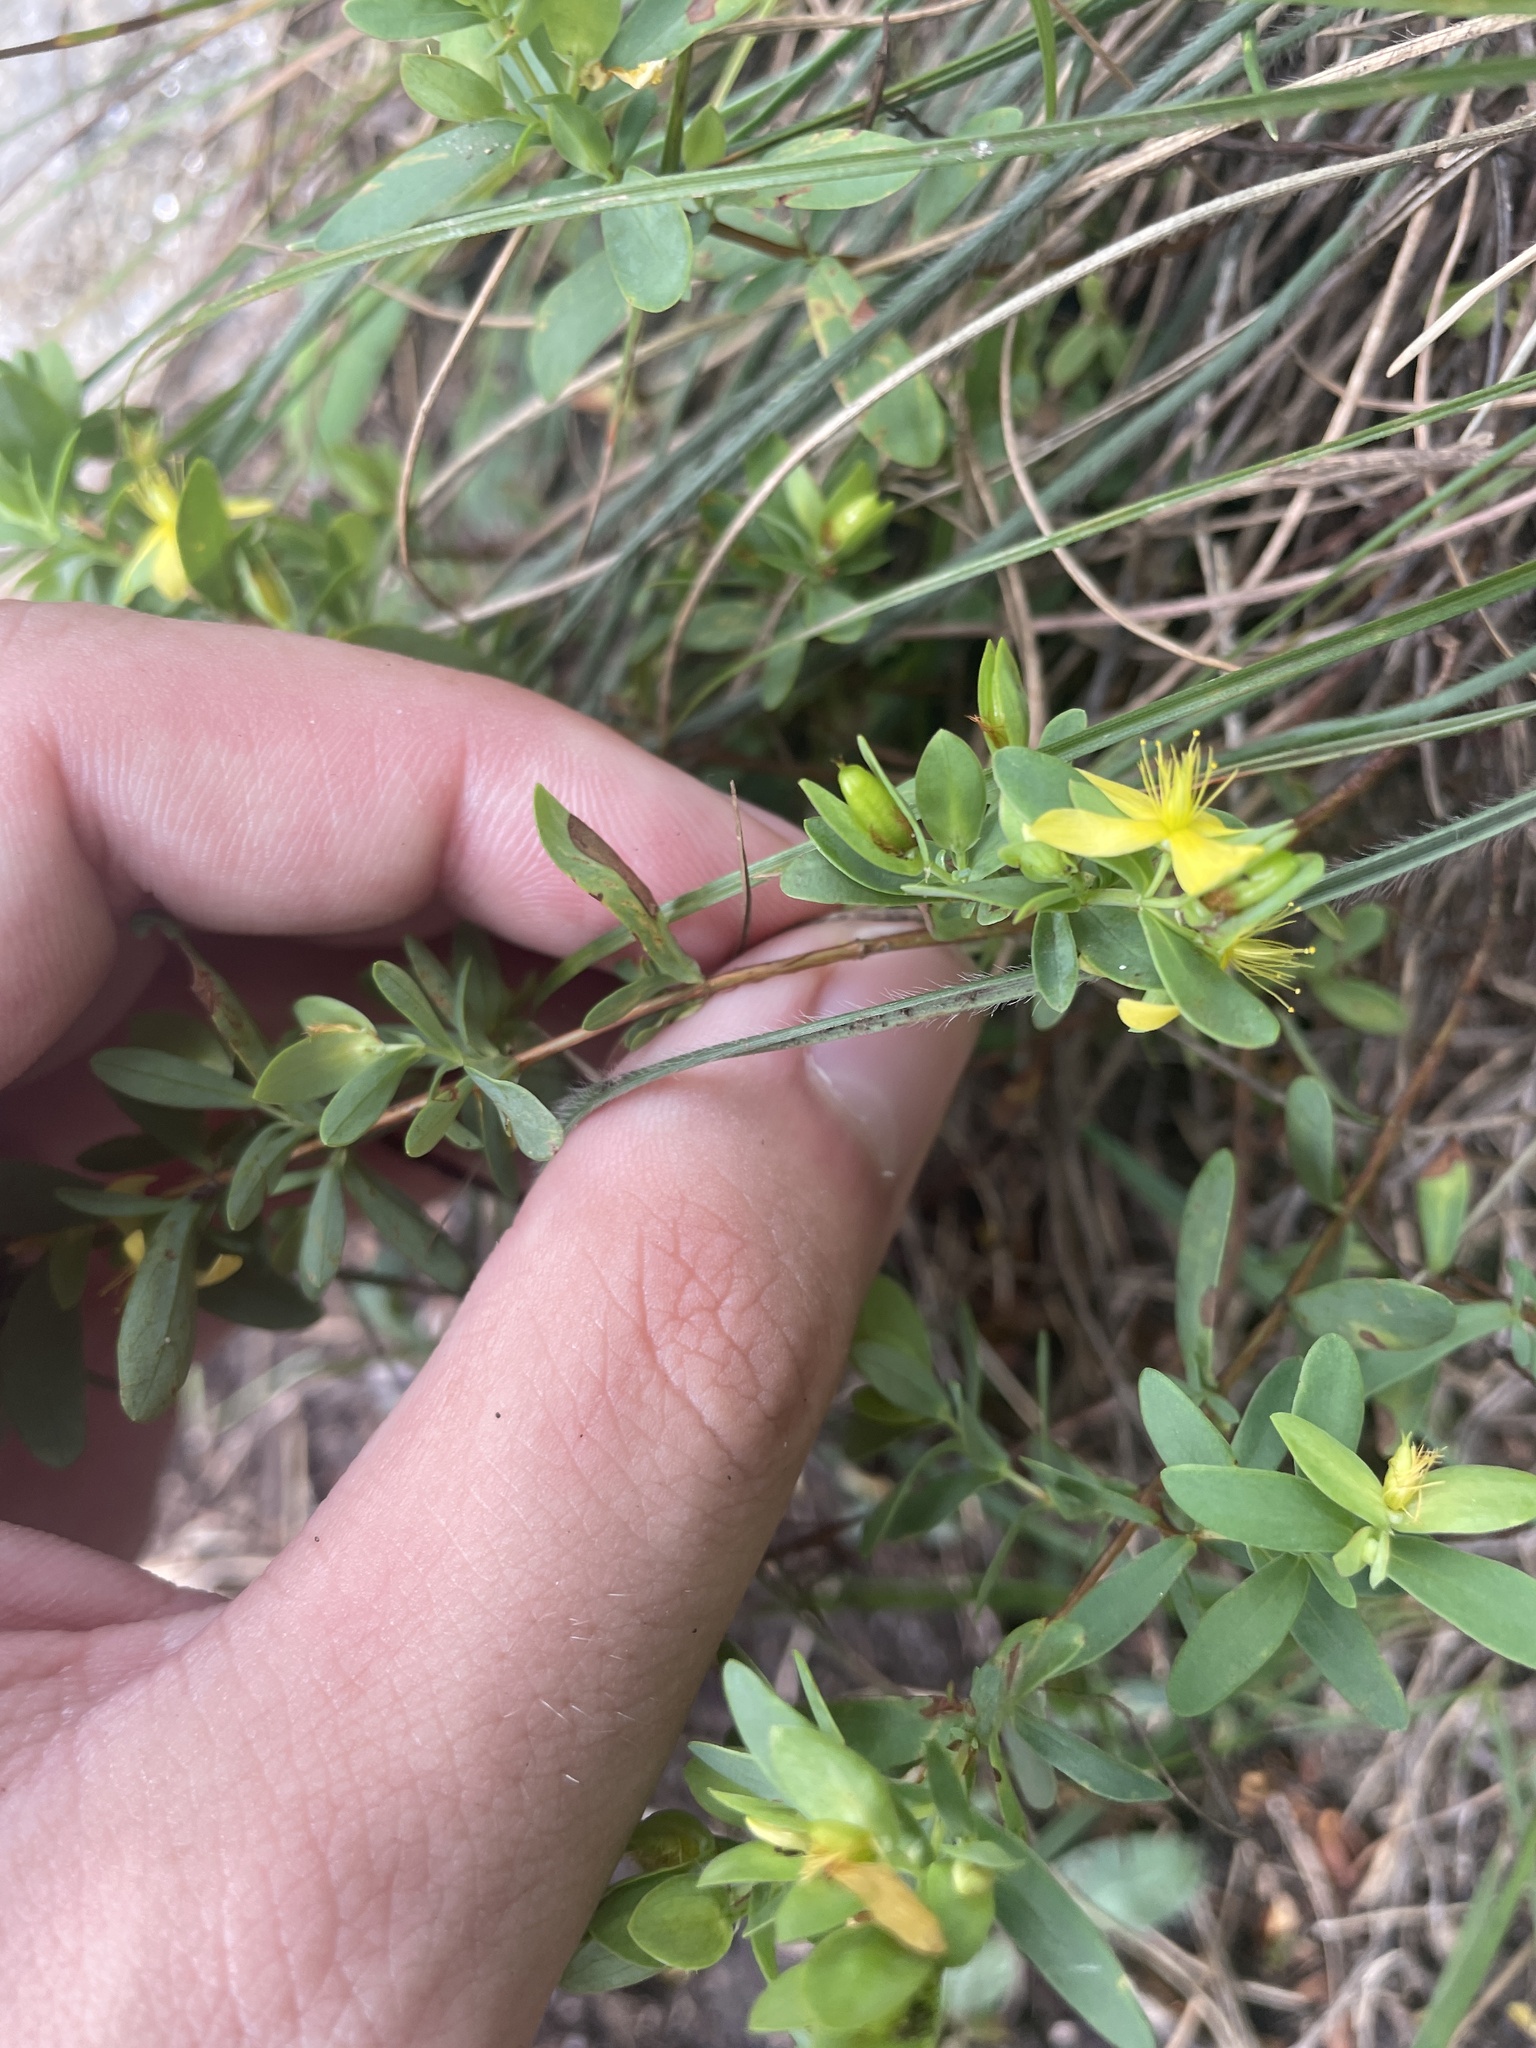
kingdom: Plantae
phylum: Tracheophyta
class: Magnoliopsida
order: Malpighiales
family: Hypericaceae
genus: Hypericum
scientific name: Hypericum hypericoides
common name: St. andrew's cross
